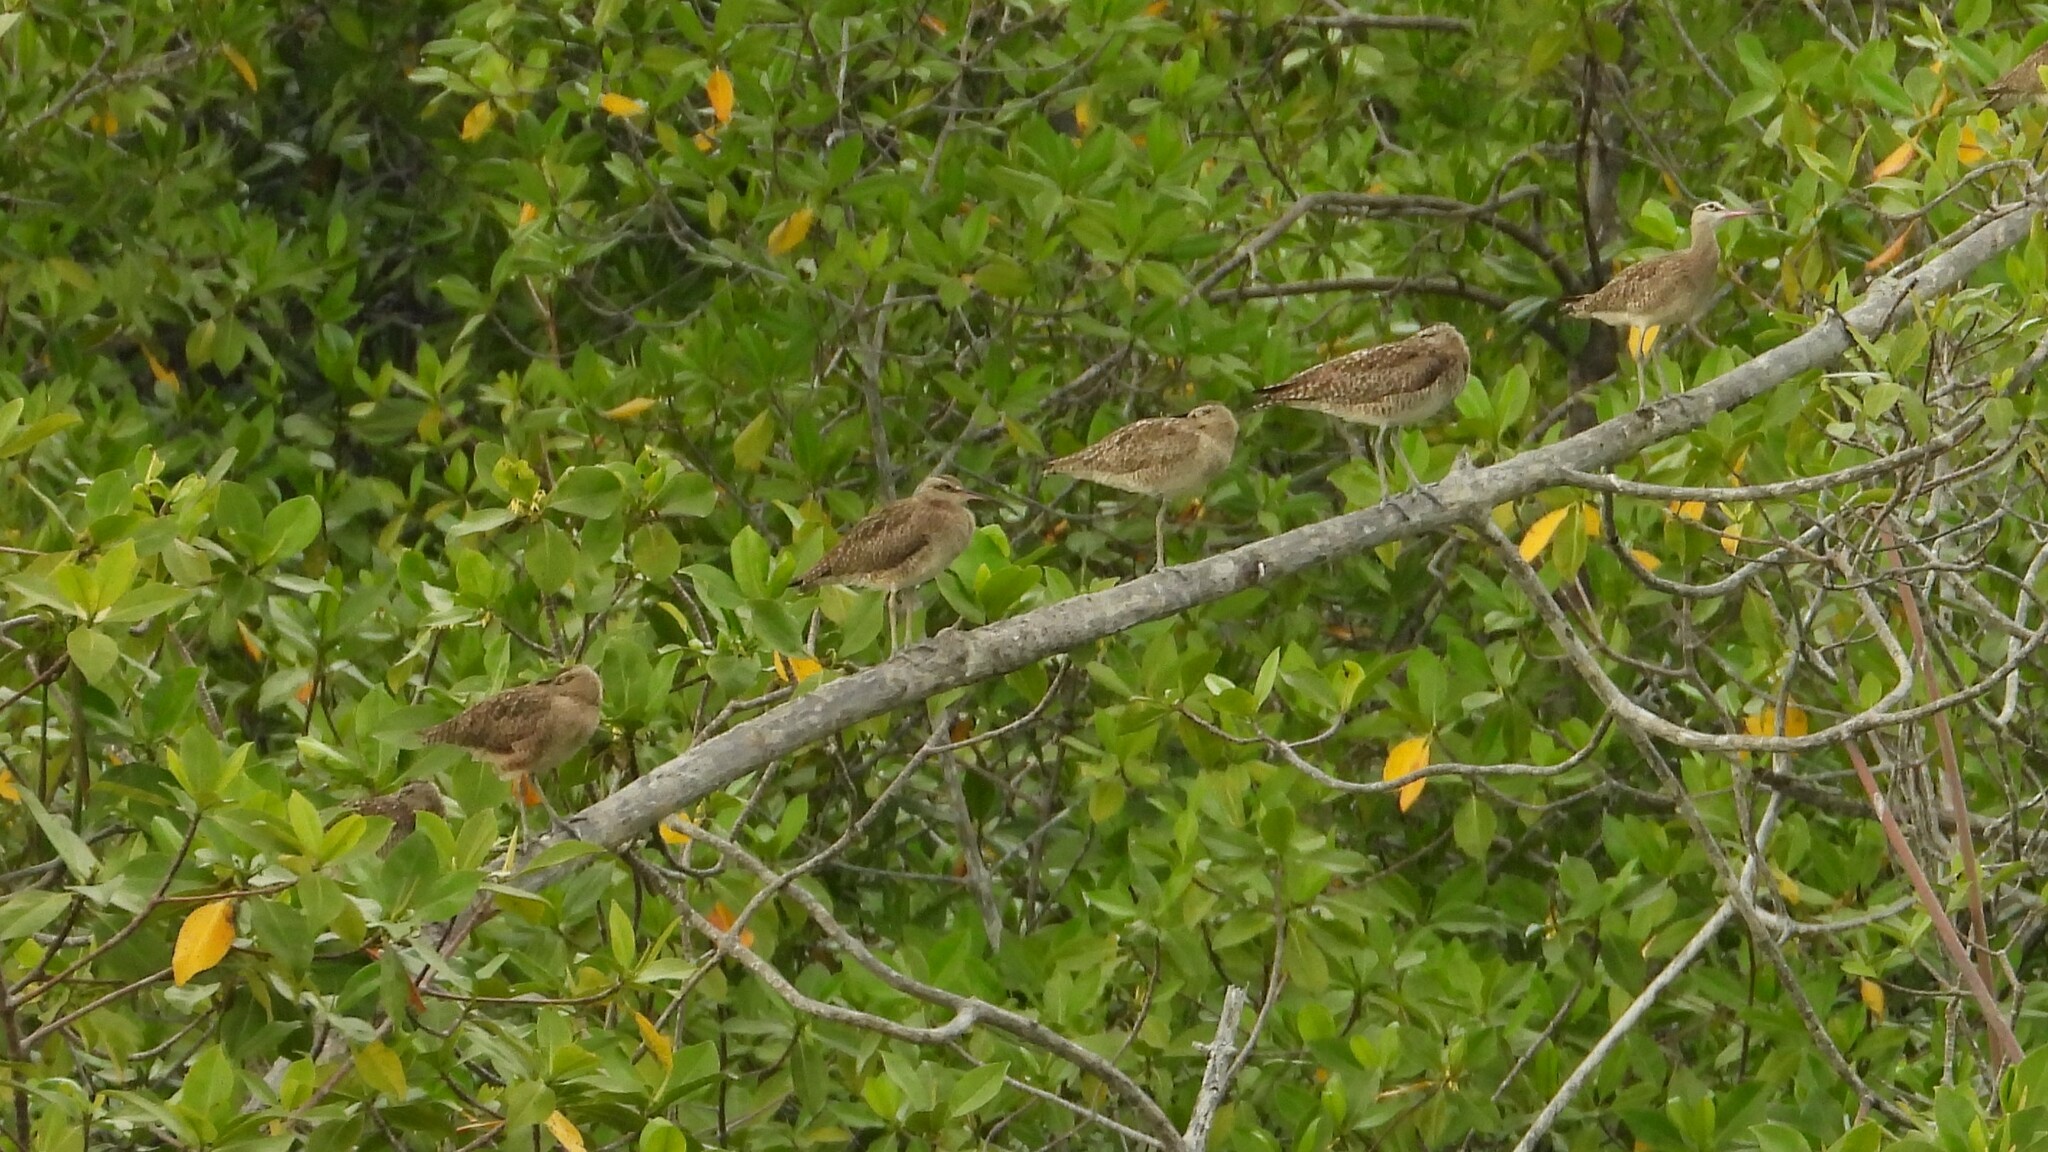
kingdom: Animalia
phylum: Chordata
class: Aves
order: Charadriiformes
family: Scolopacidae
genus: Numenius
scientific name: Numenius phaeopus
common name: Whimbrel
